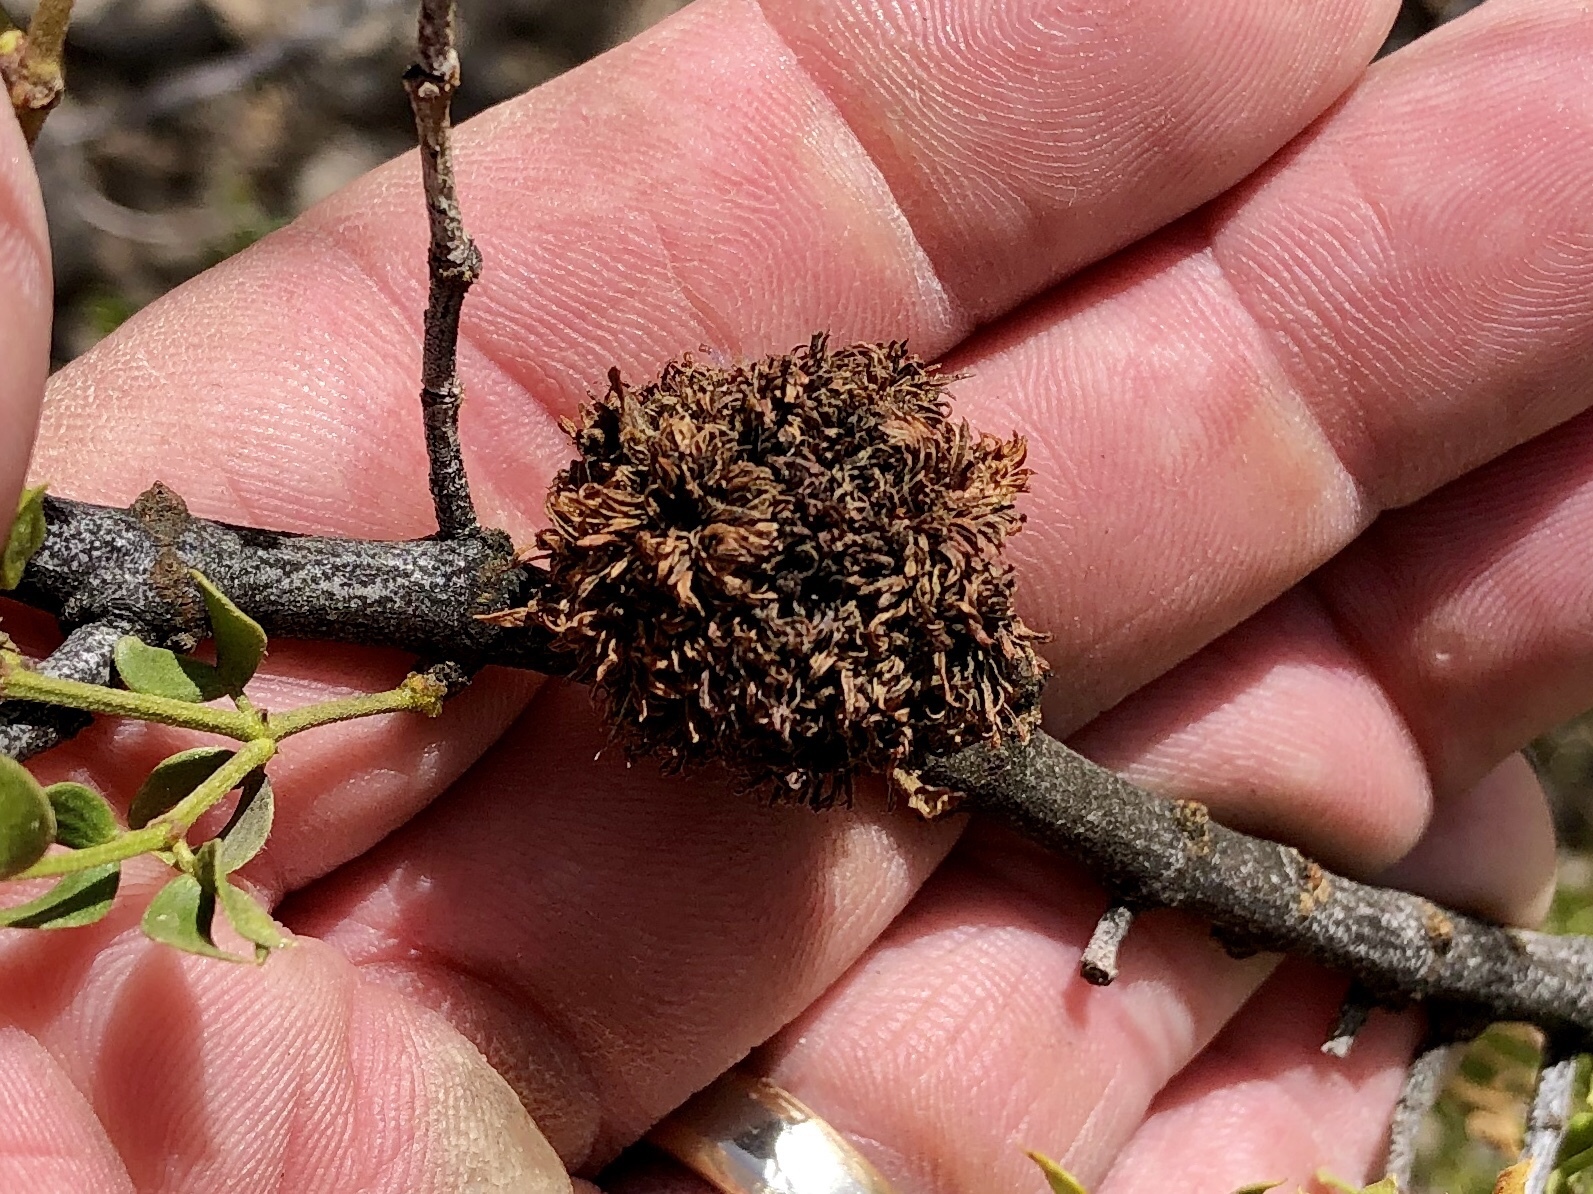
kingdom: Animalia
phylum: Arthropoda
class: Insecta
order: Diptera
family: Cecidomyiidae
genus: Asphondylia
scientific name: Asphondylia auripila
